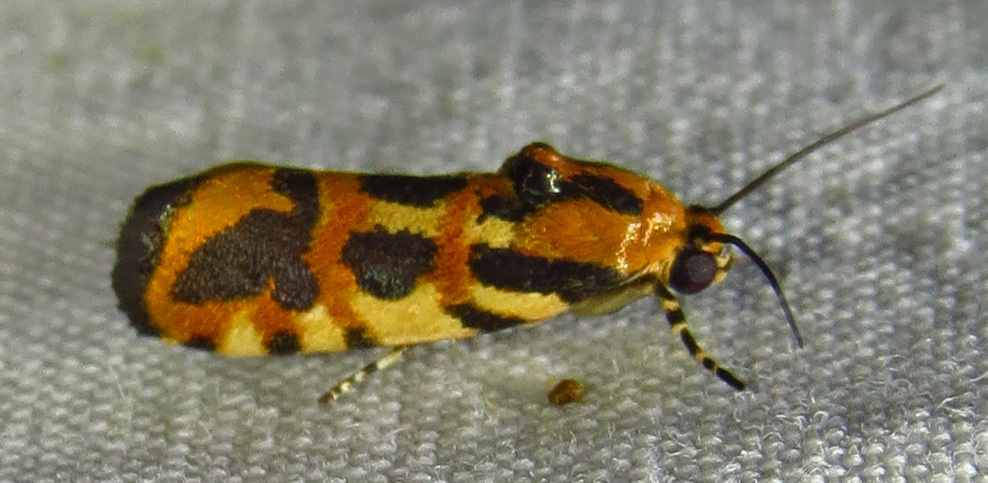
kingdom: Animalia
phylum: Arthropoda
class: Insecta
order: Lepidoptera
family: Noctuidae
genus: Acontia
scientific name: Acontia leo
